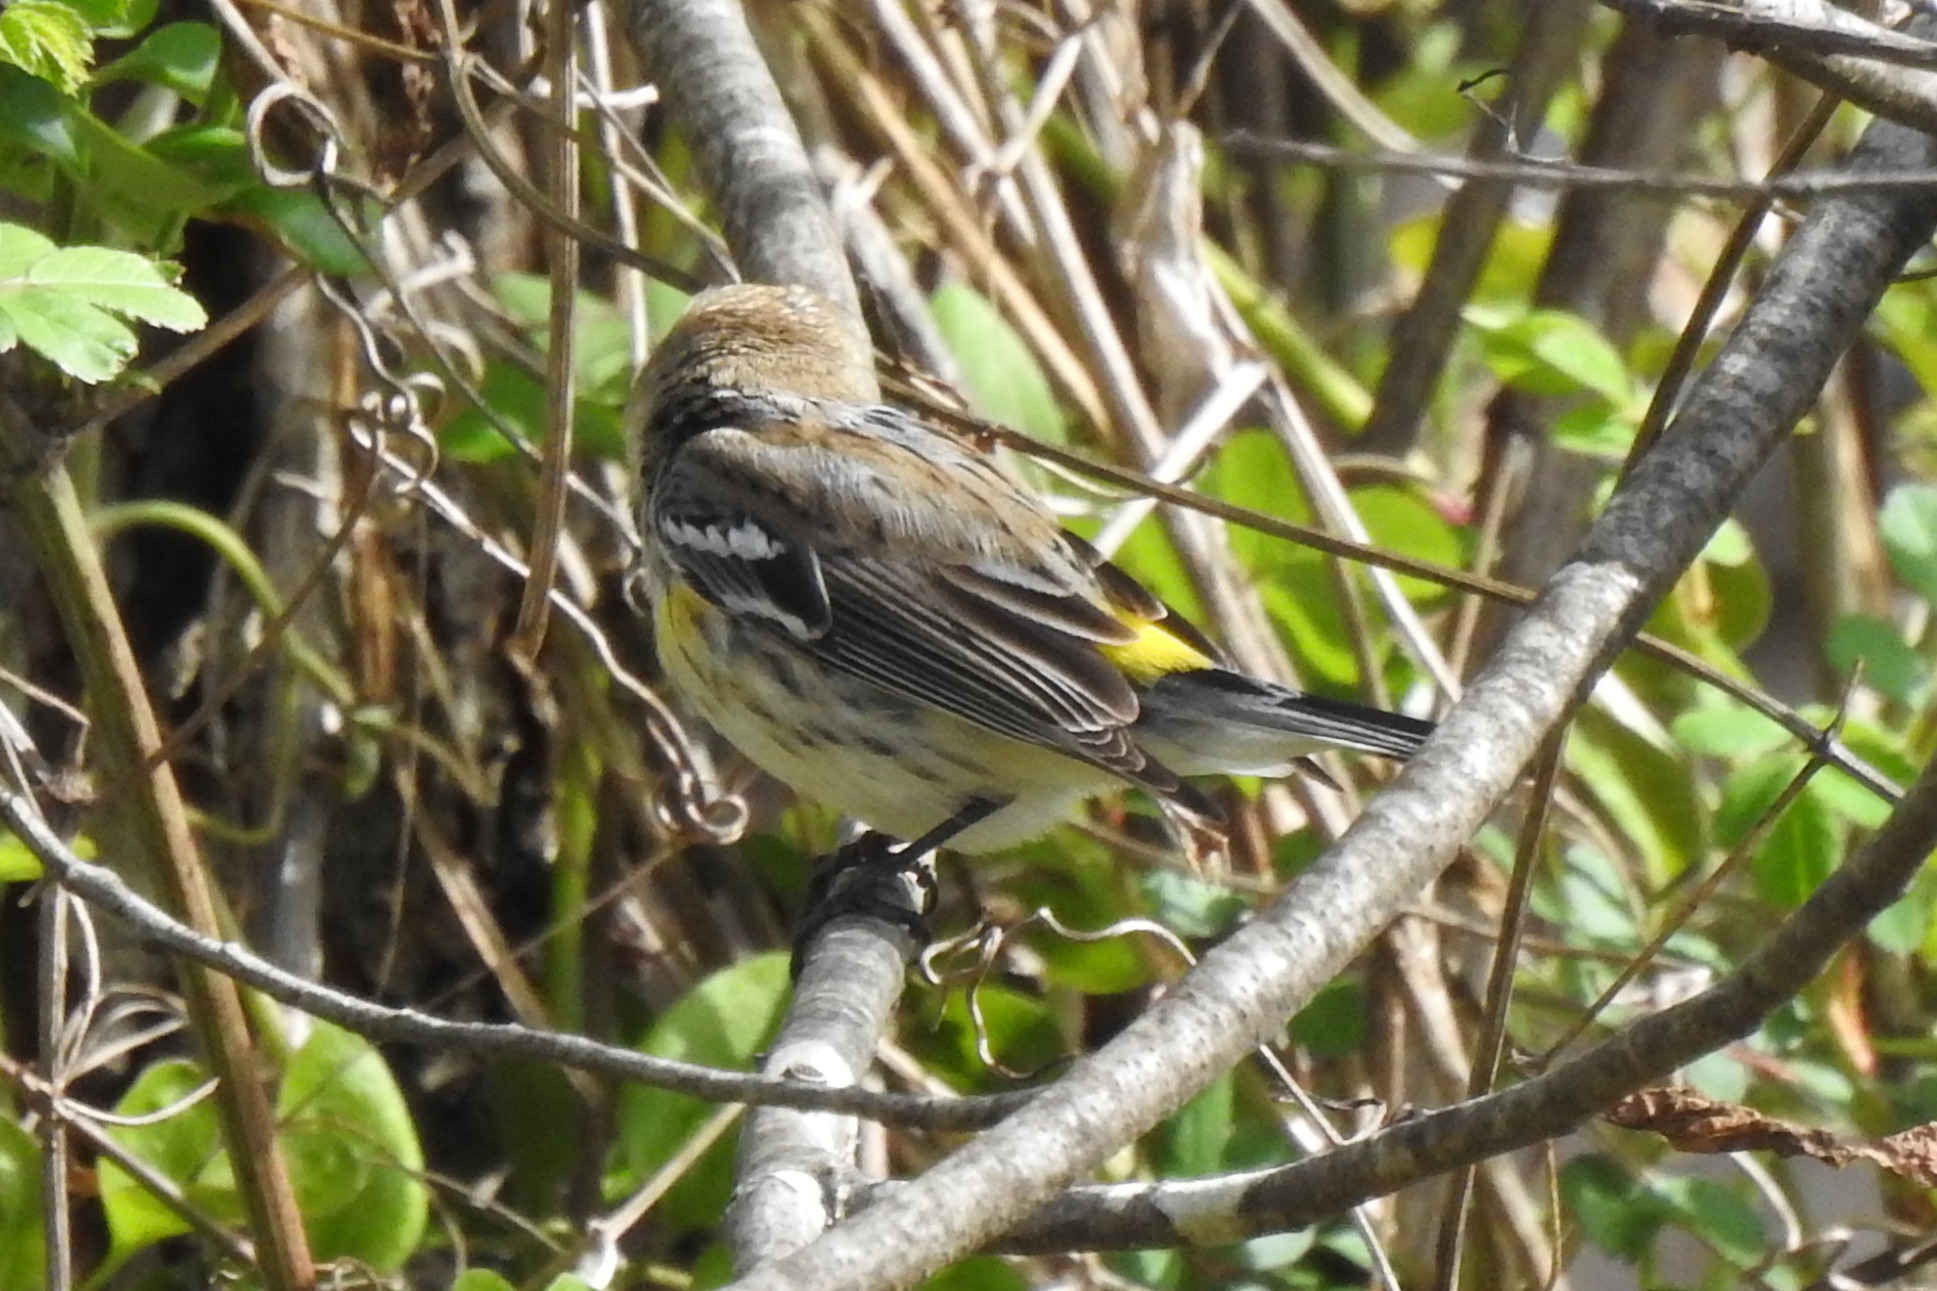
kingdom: Animalia
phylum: Chordata
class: Aves
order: Passeriformes
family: Parulidae
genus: Setophaga
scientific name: Setophaga coronata
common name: Myrtle warbler
